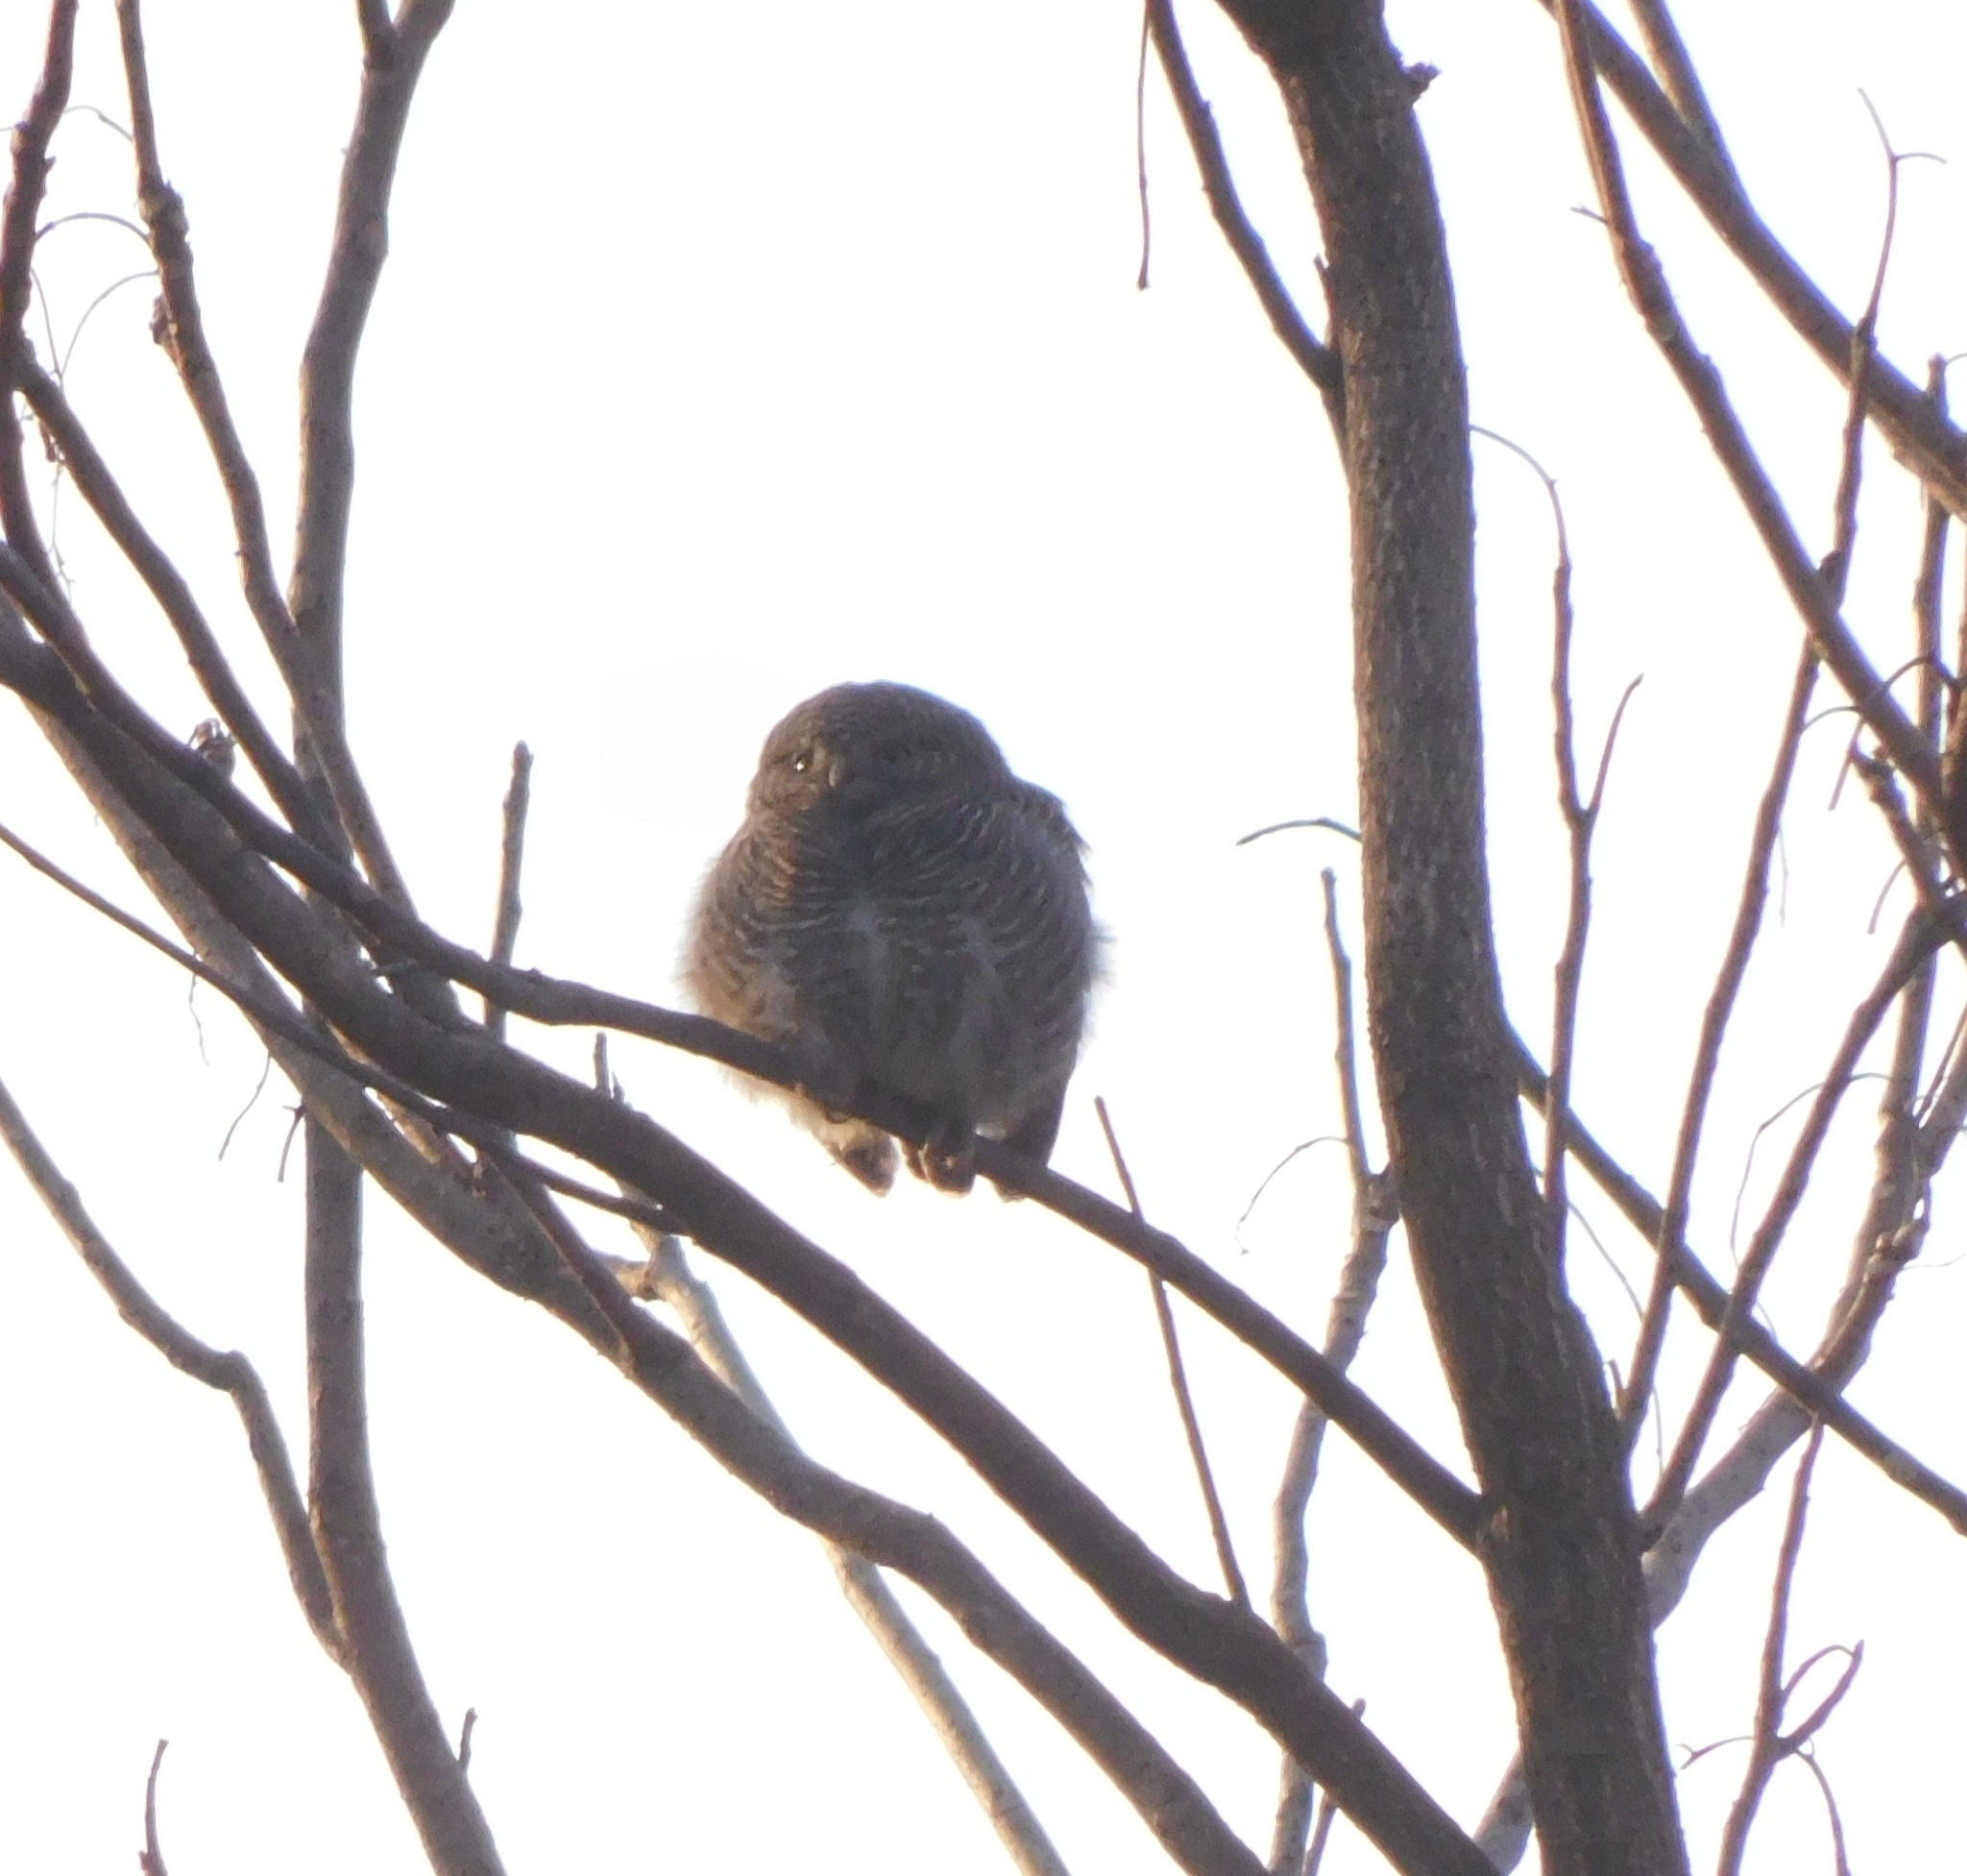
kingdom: Animalia
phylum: Chordata
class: Aves
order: Strigiformes
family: Strigidae
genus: Glaucidium
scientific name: Glaucidium cuculoides
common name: Asian barred owlet
